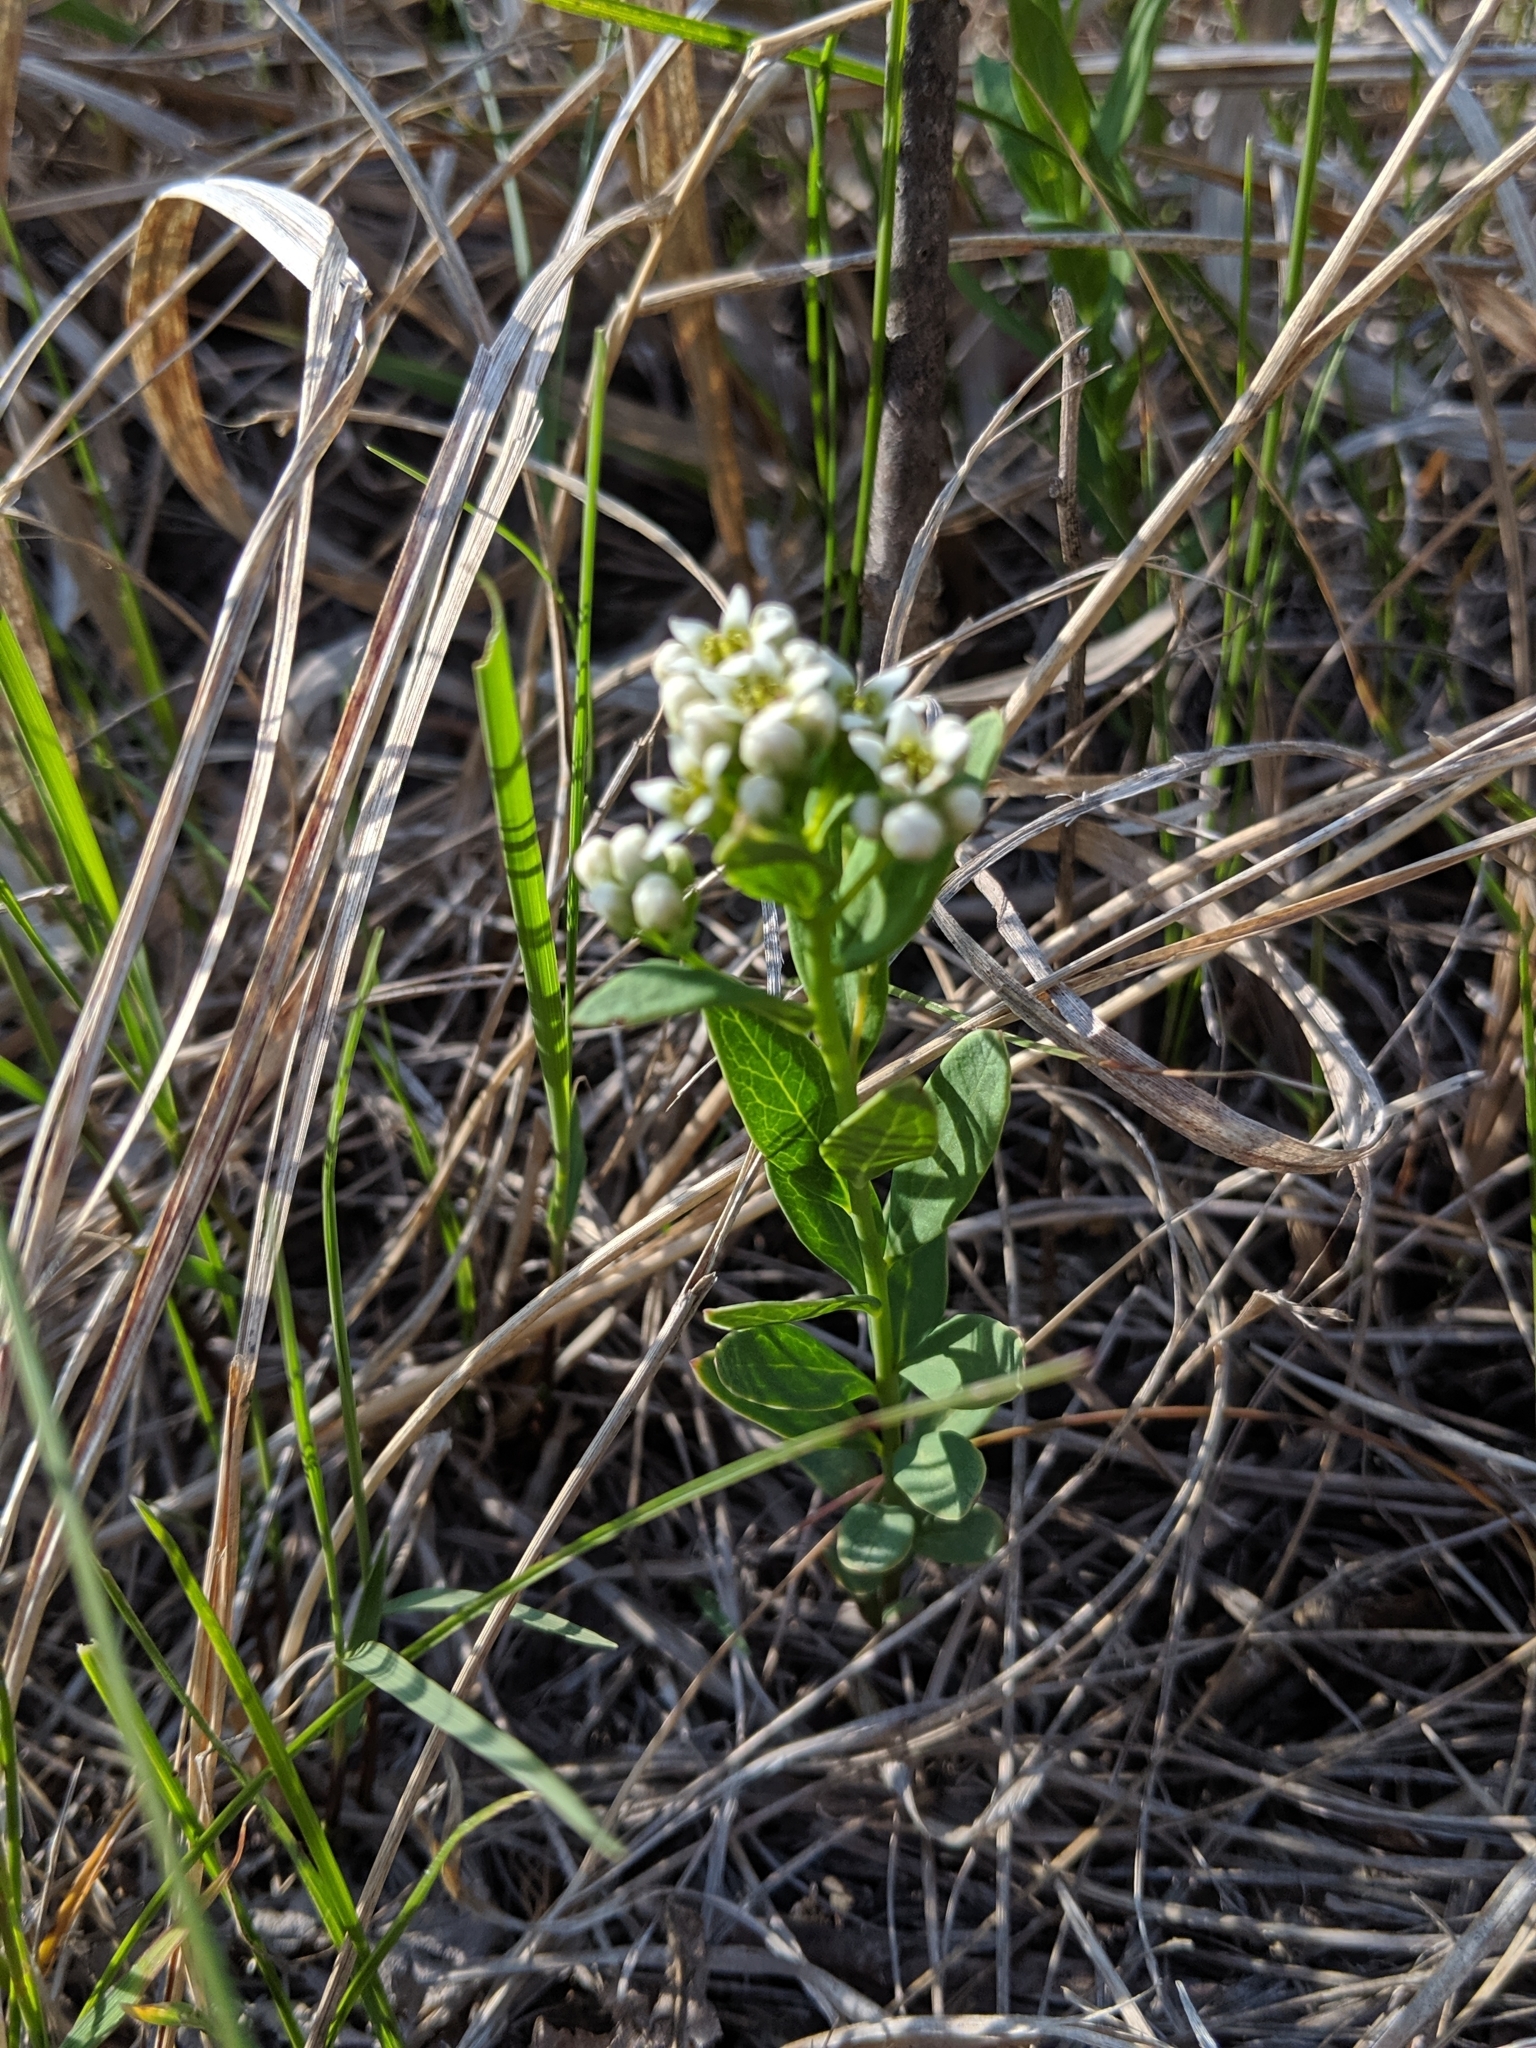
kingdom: Plantae
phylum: Tracheophyta
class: Magnoliopsida
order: Santalales
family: Comandraceae
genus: Comandra
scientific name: Comandra umbellata
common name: Bastard toadflax
